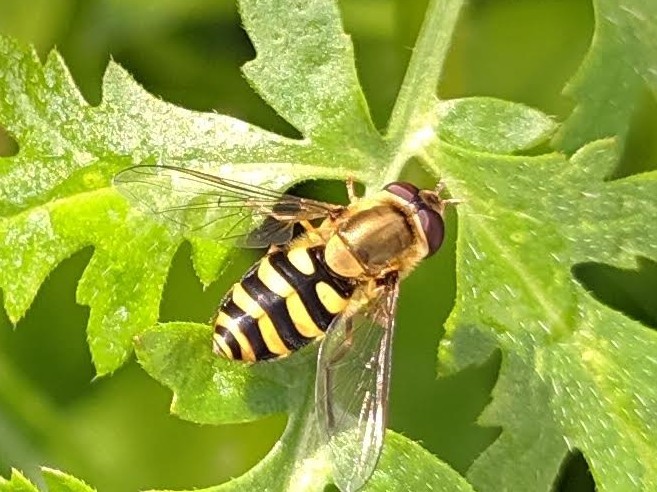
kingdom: Animalia
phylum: Arthropoda
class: Insecta
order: Diptera
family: Syrphidae
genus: Syrphus
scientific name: Syrphus
